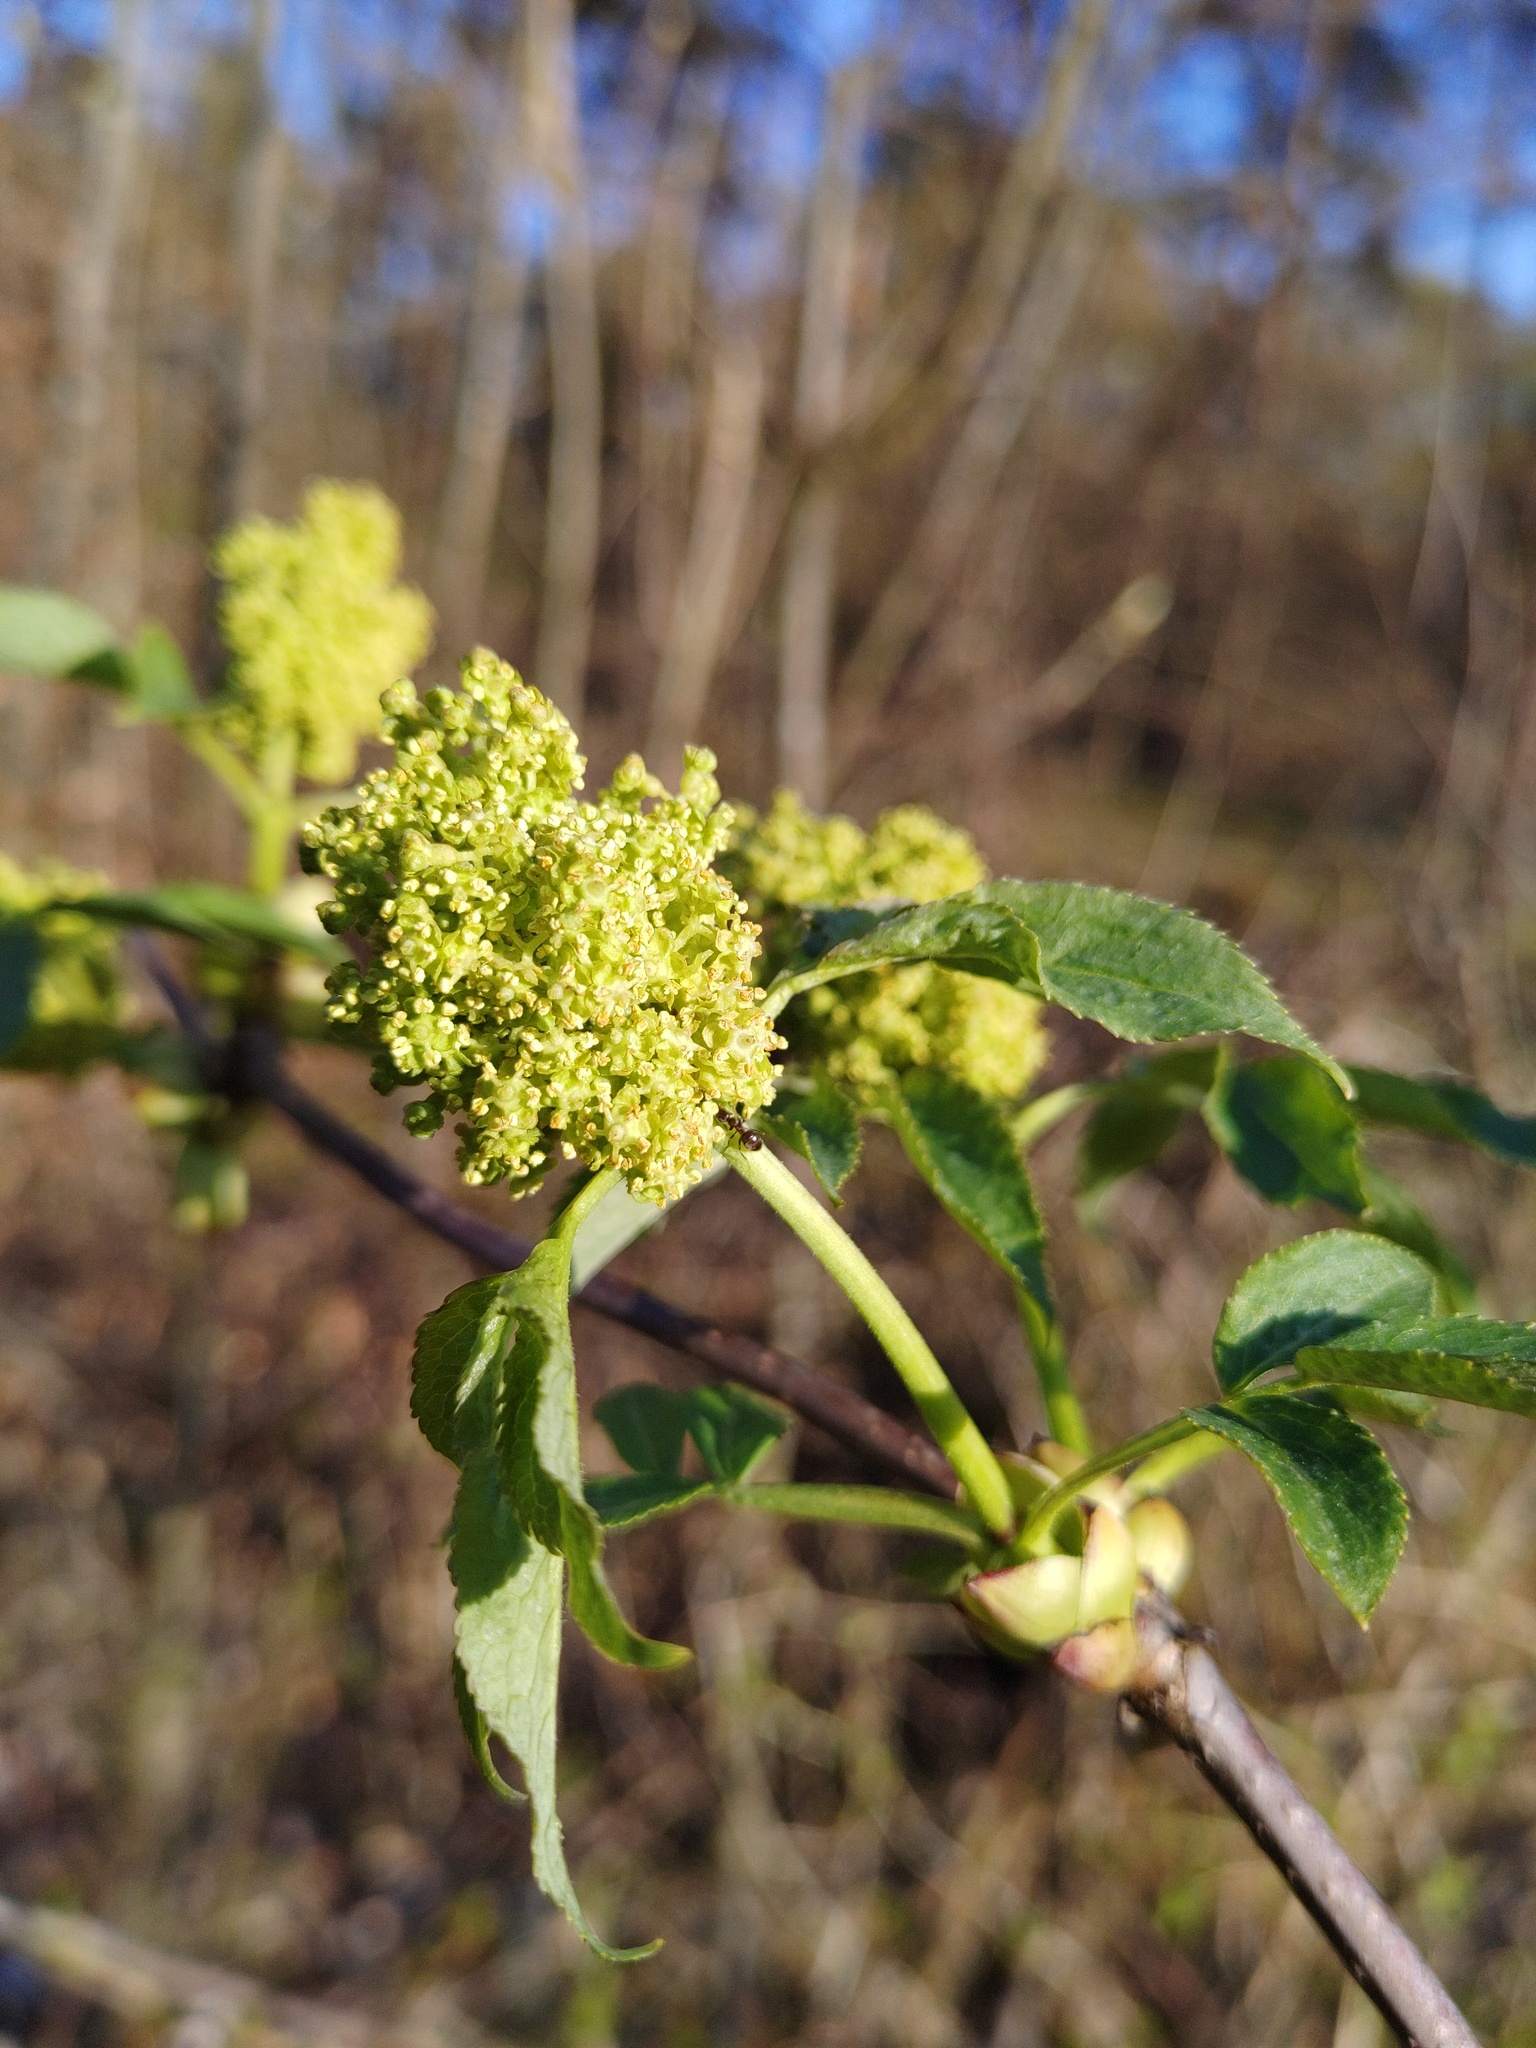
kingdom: Plantae
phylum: Tracheophyta
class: Magnoliopsida
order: Dipsacales
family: Viburnaceae
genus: Sambucus
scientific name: Sambucus racemosa
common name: Red-berried elder
